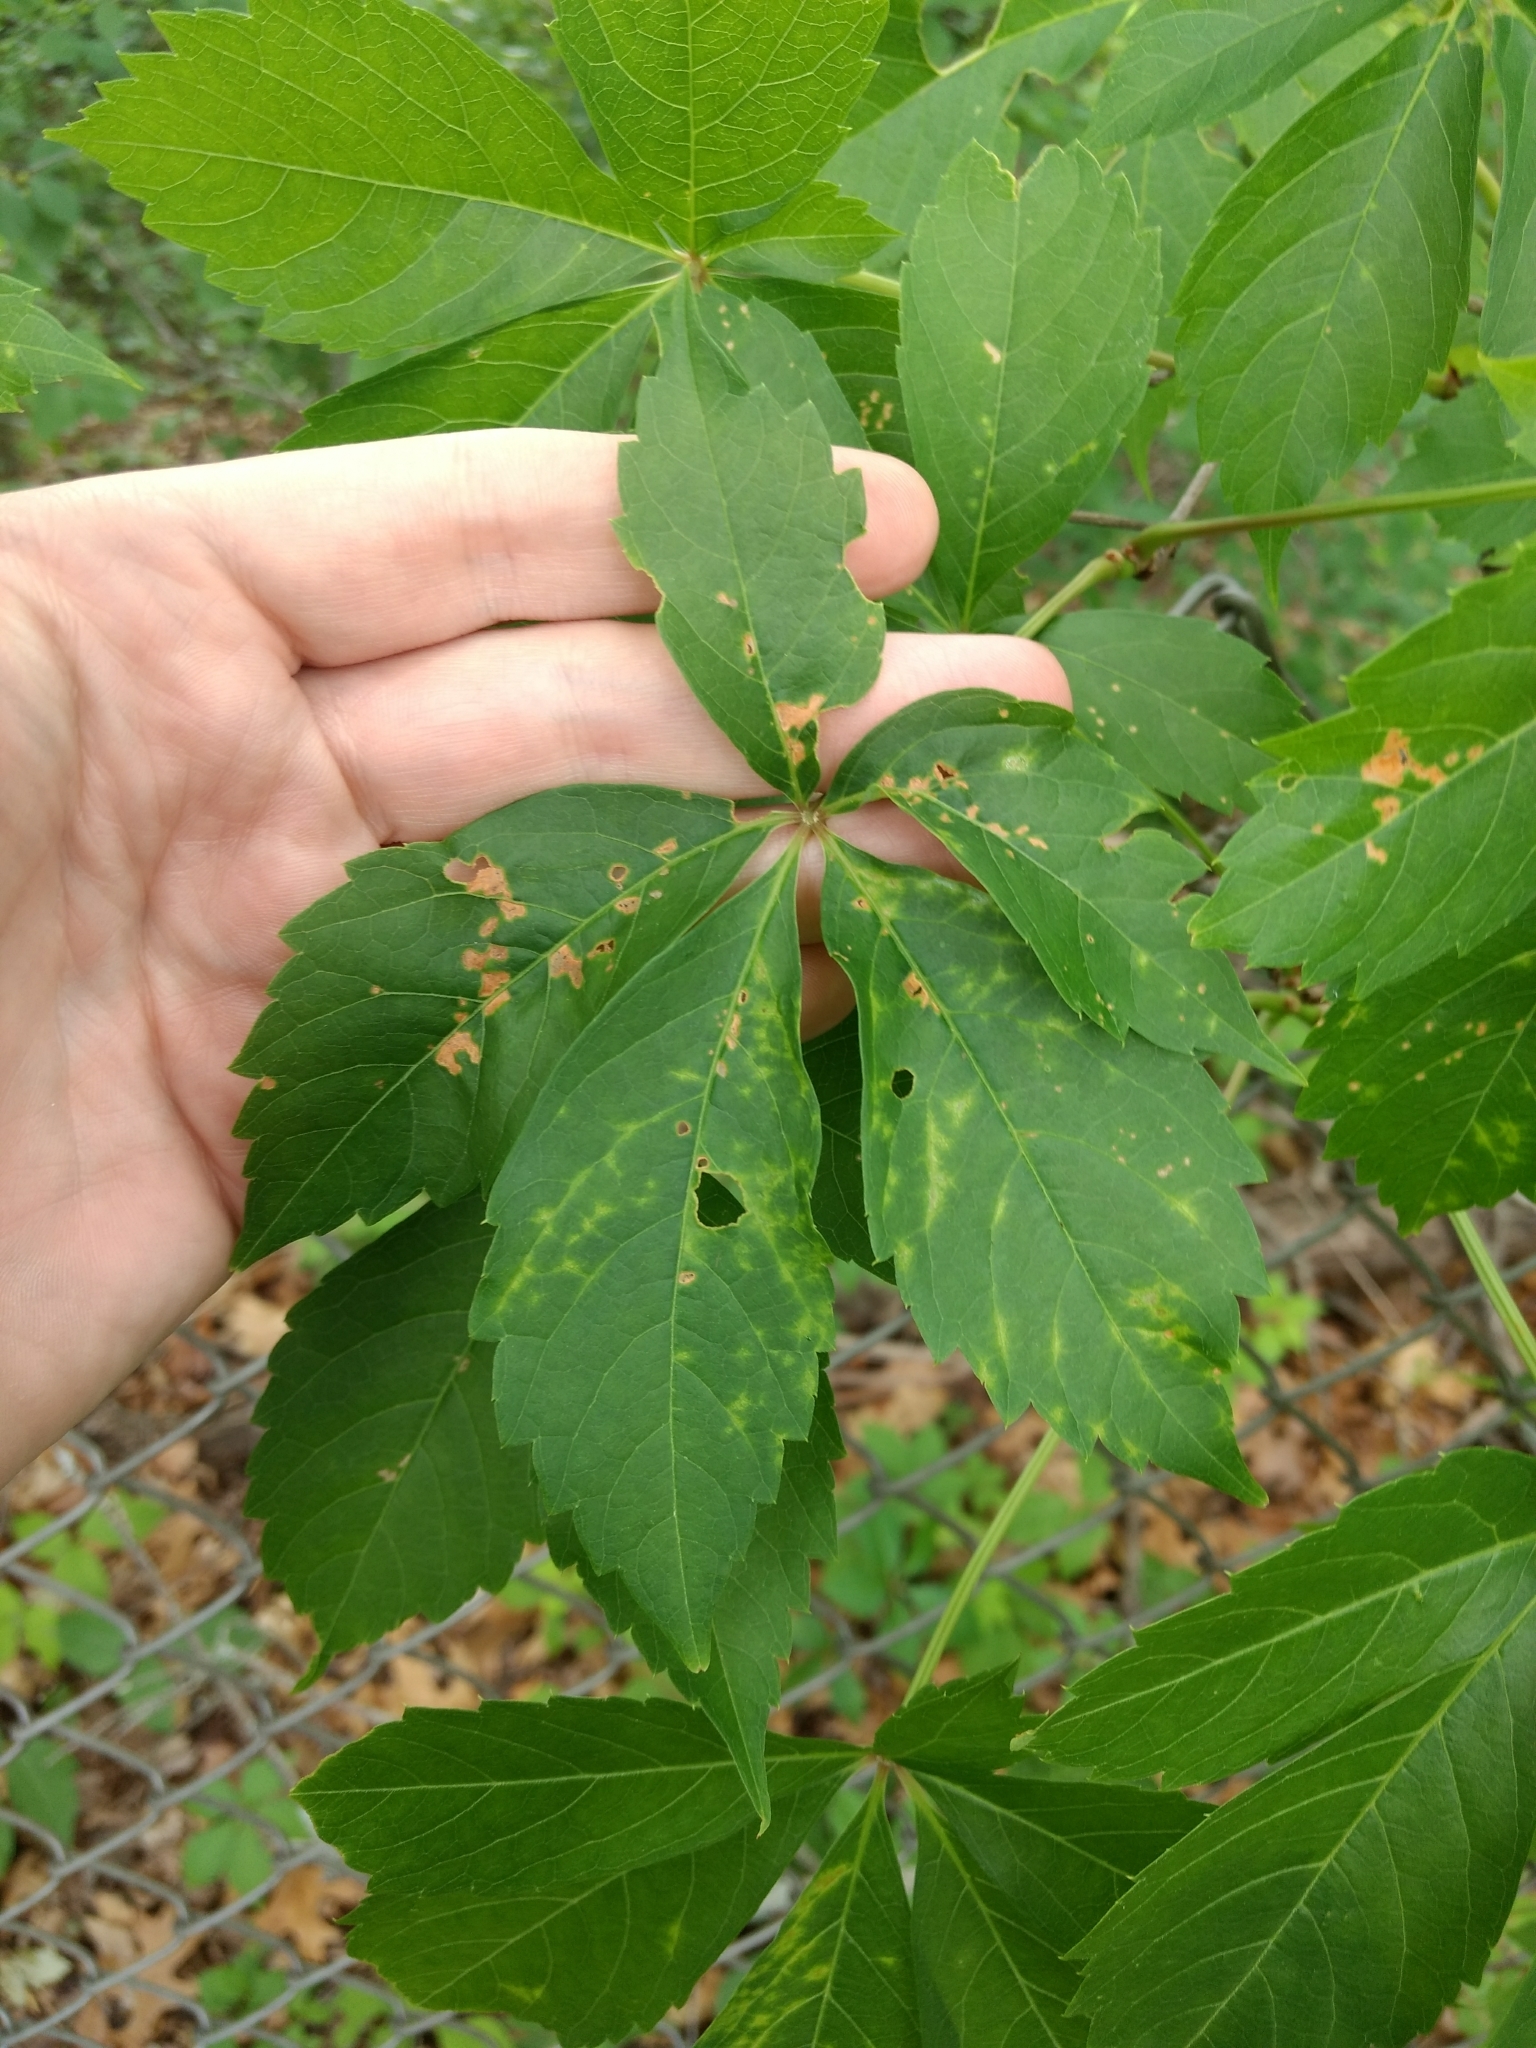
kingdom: Plantae
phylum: Tracheophyta
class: Magnoliopsida
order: Vitales
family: Vitaceae
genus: Parthenocissus
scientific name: Parthenocissus quinquefolia
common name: Virginia-creeper
